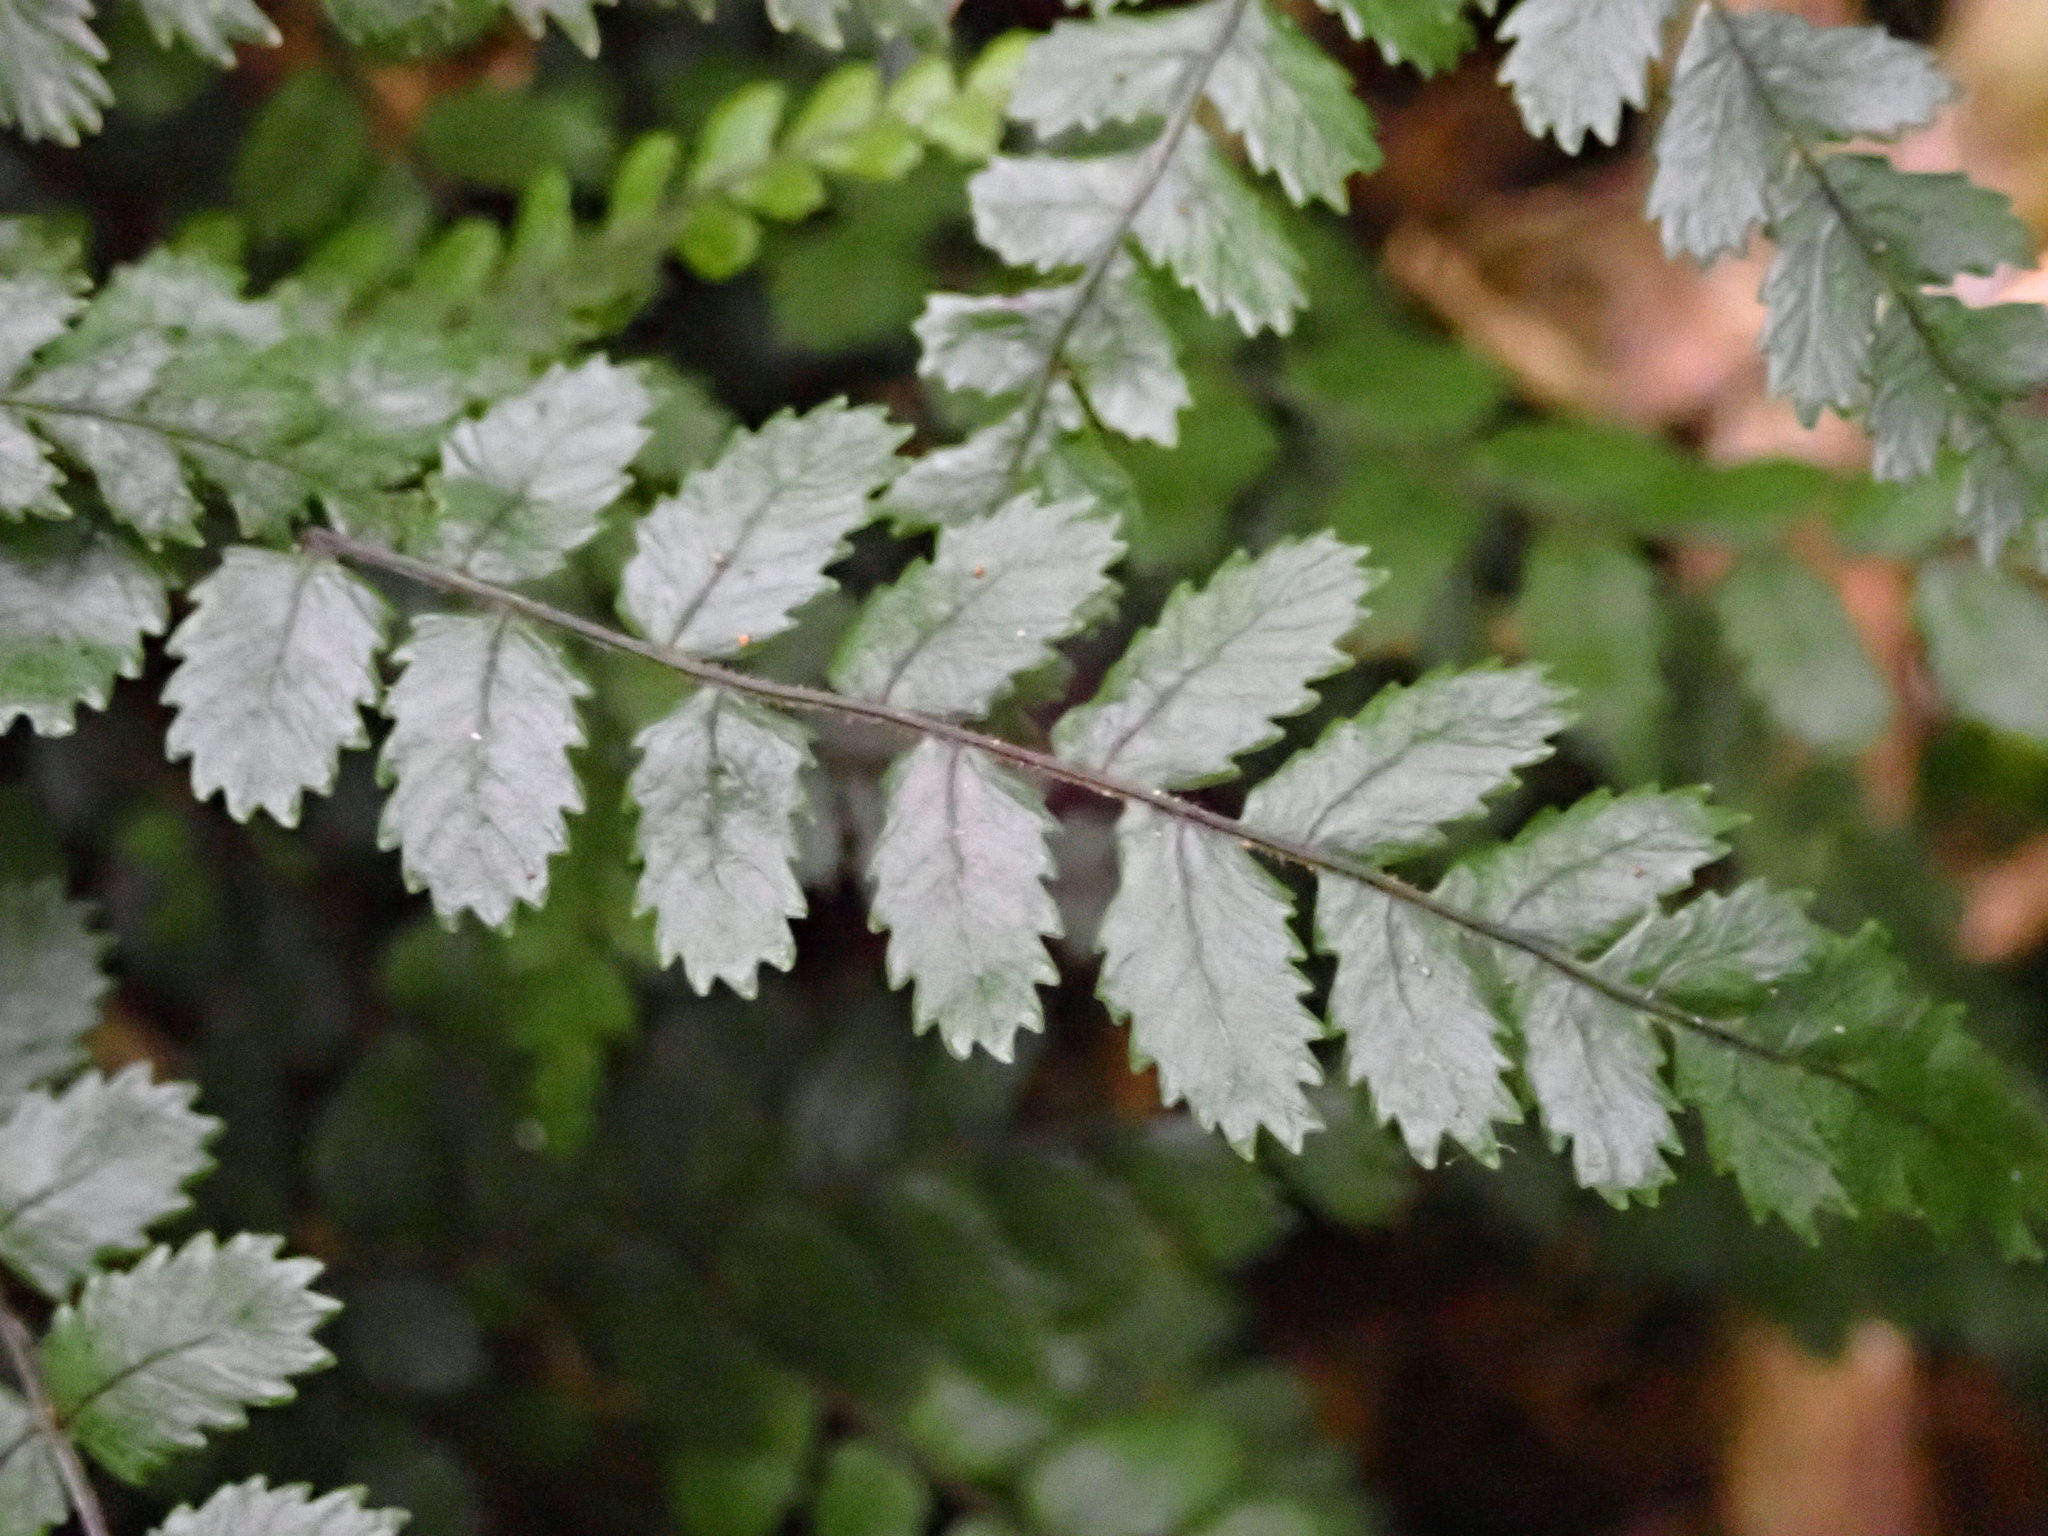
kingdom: Plantae
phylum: Tracheophyta
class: Polypodiopsida
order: Polypodiales
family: Blechnaceae
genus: Icarus
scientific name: Icarus filiformis
